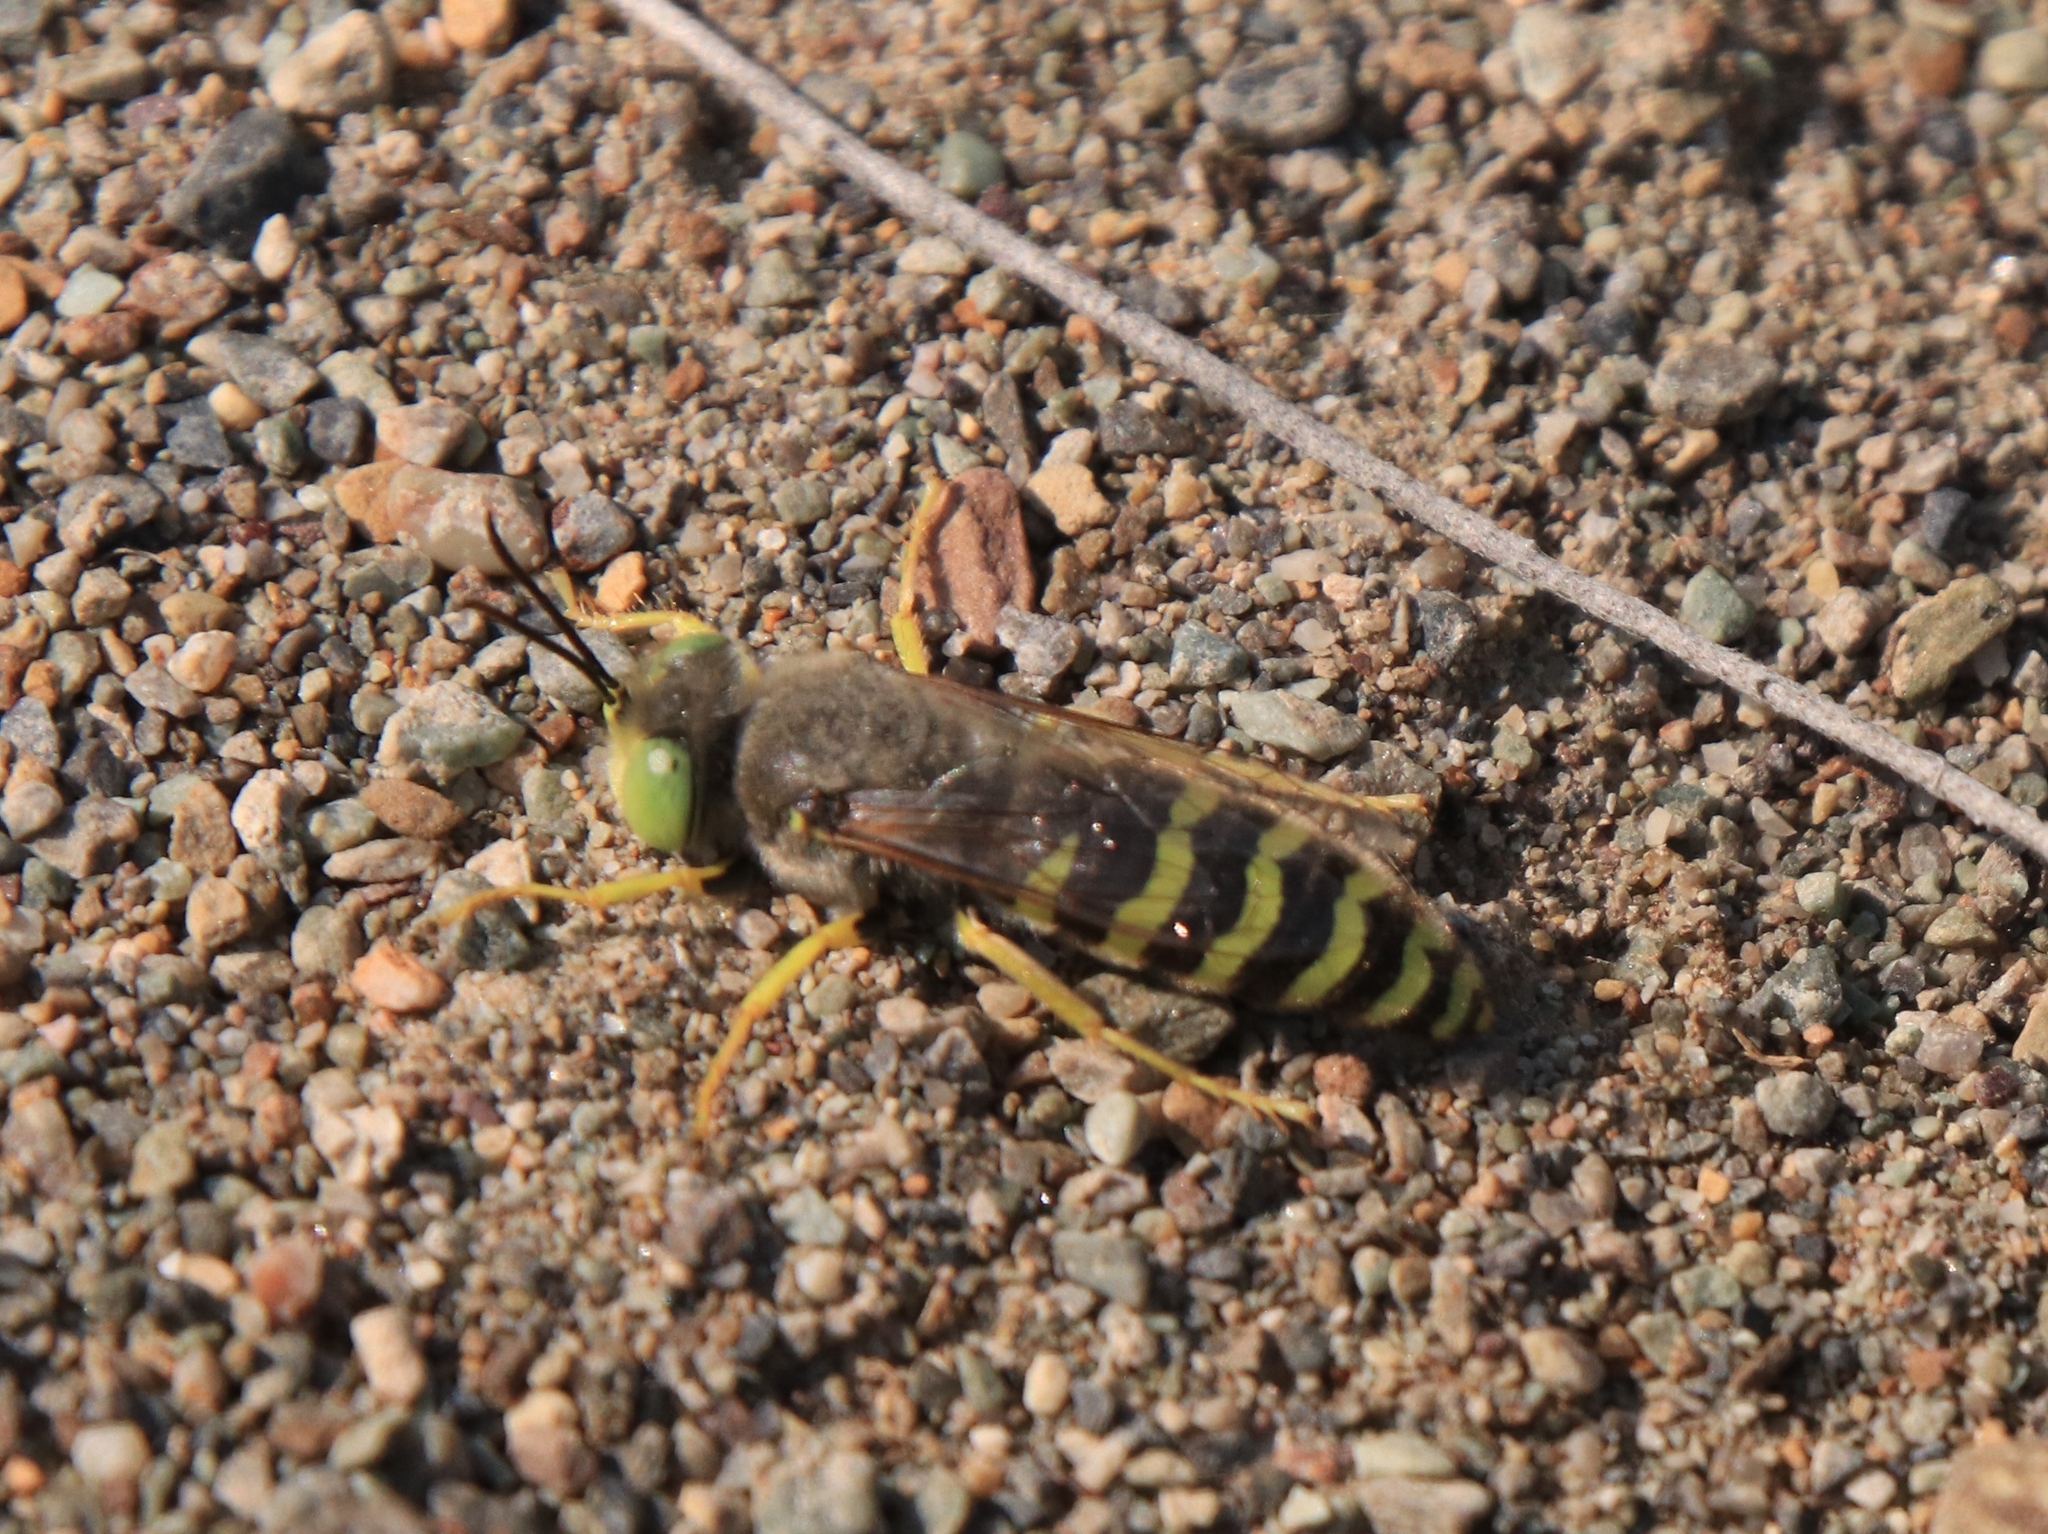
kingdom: Animalia
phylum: Arthropoda
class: Insecta
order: Hymenoptera
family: Crabronidae
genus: Bembix
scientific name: Bembix americana
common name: American sand wasp
